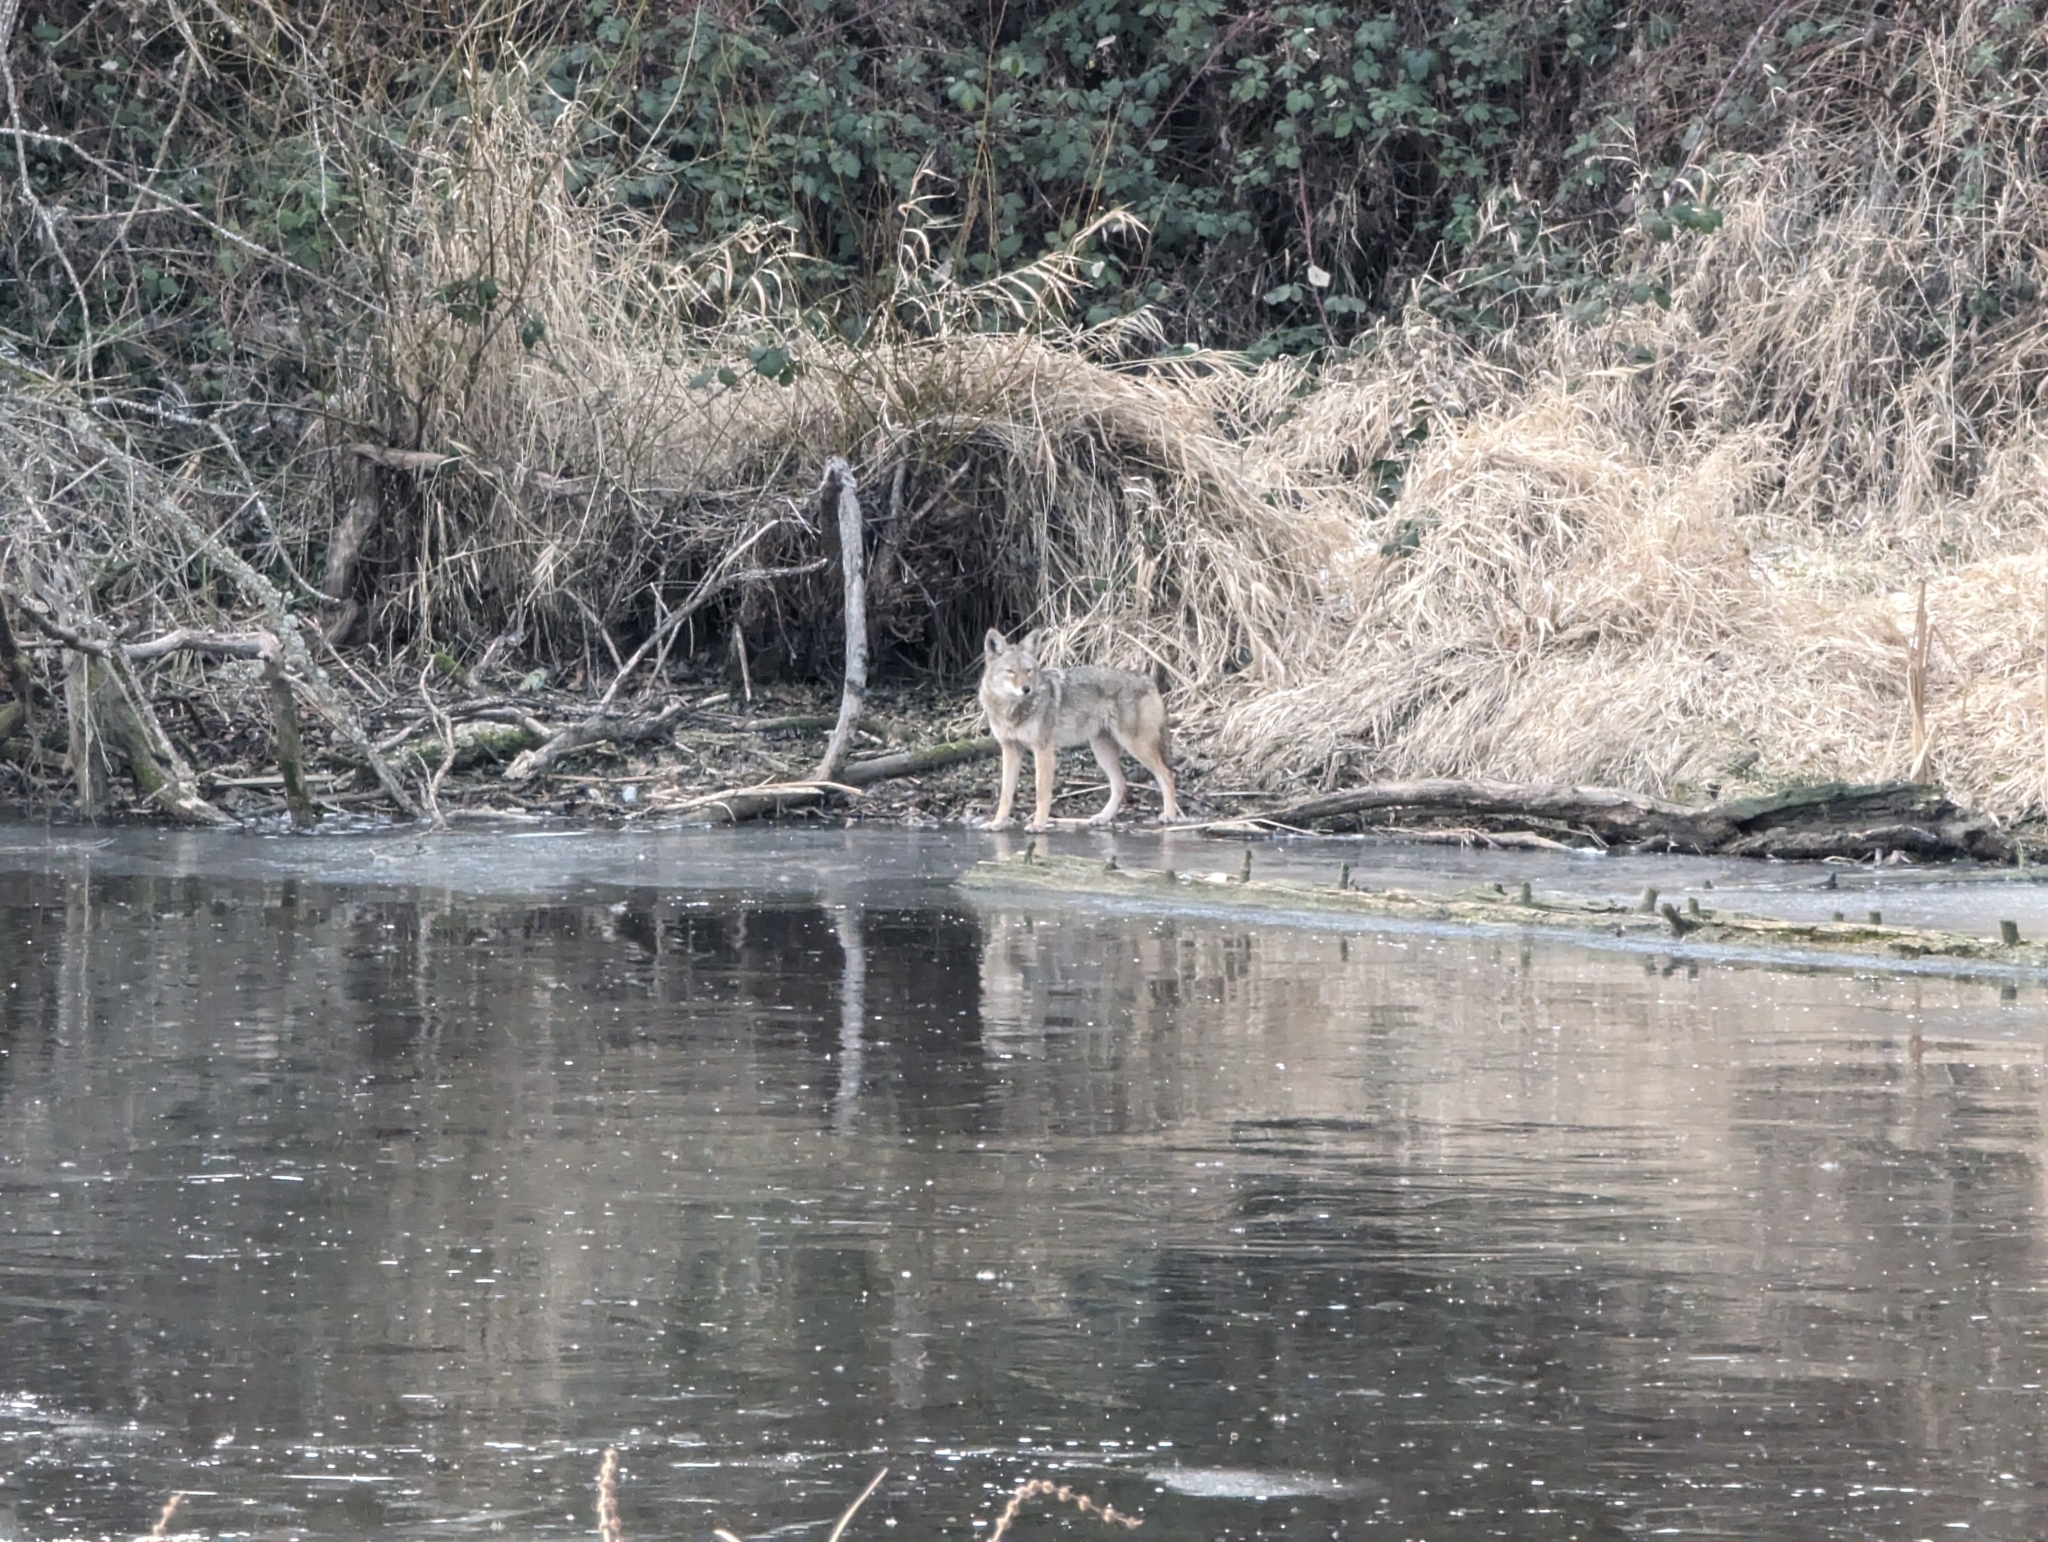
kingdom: Animalia
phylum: Chordata
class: Mammalia
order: Carnivora
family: Canidae
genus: Canis
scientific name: Canis latrans
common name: Coyote
